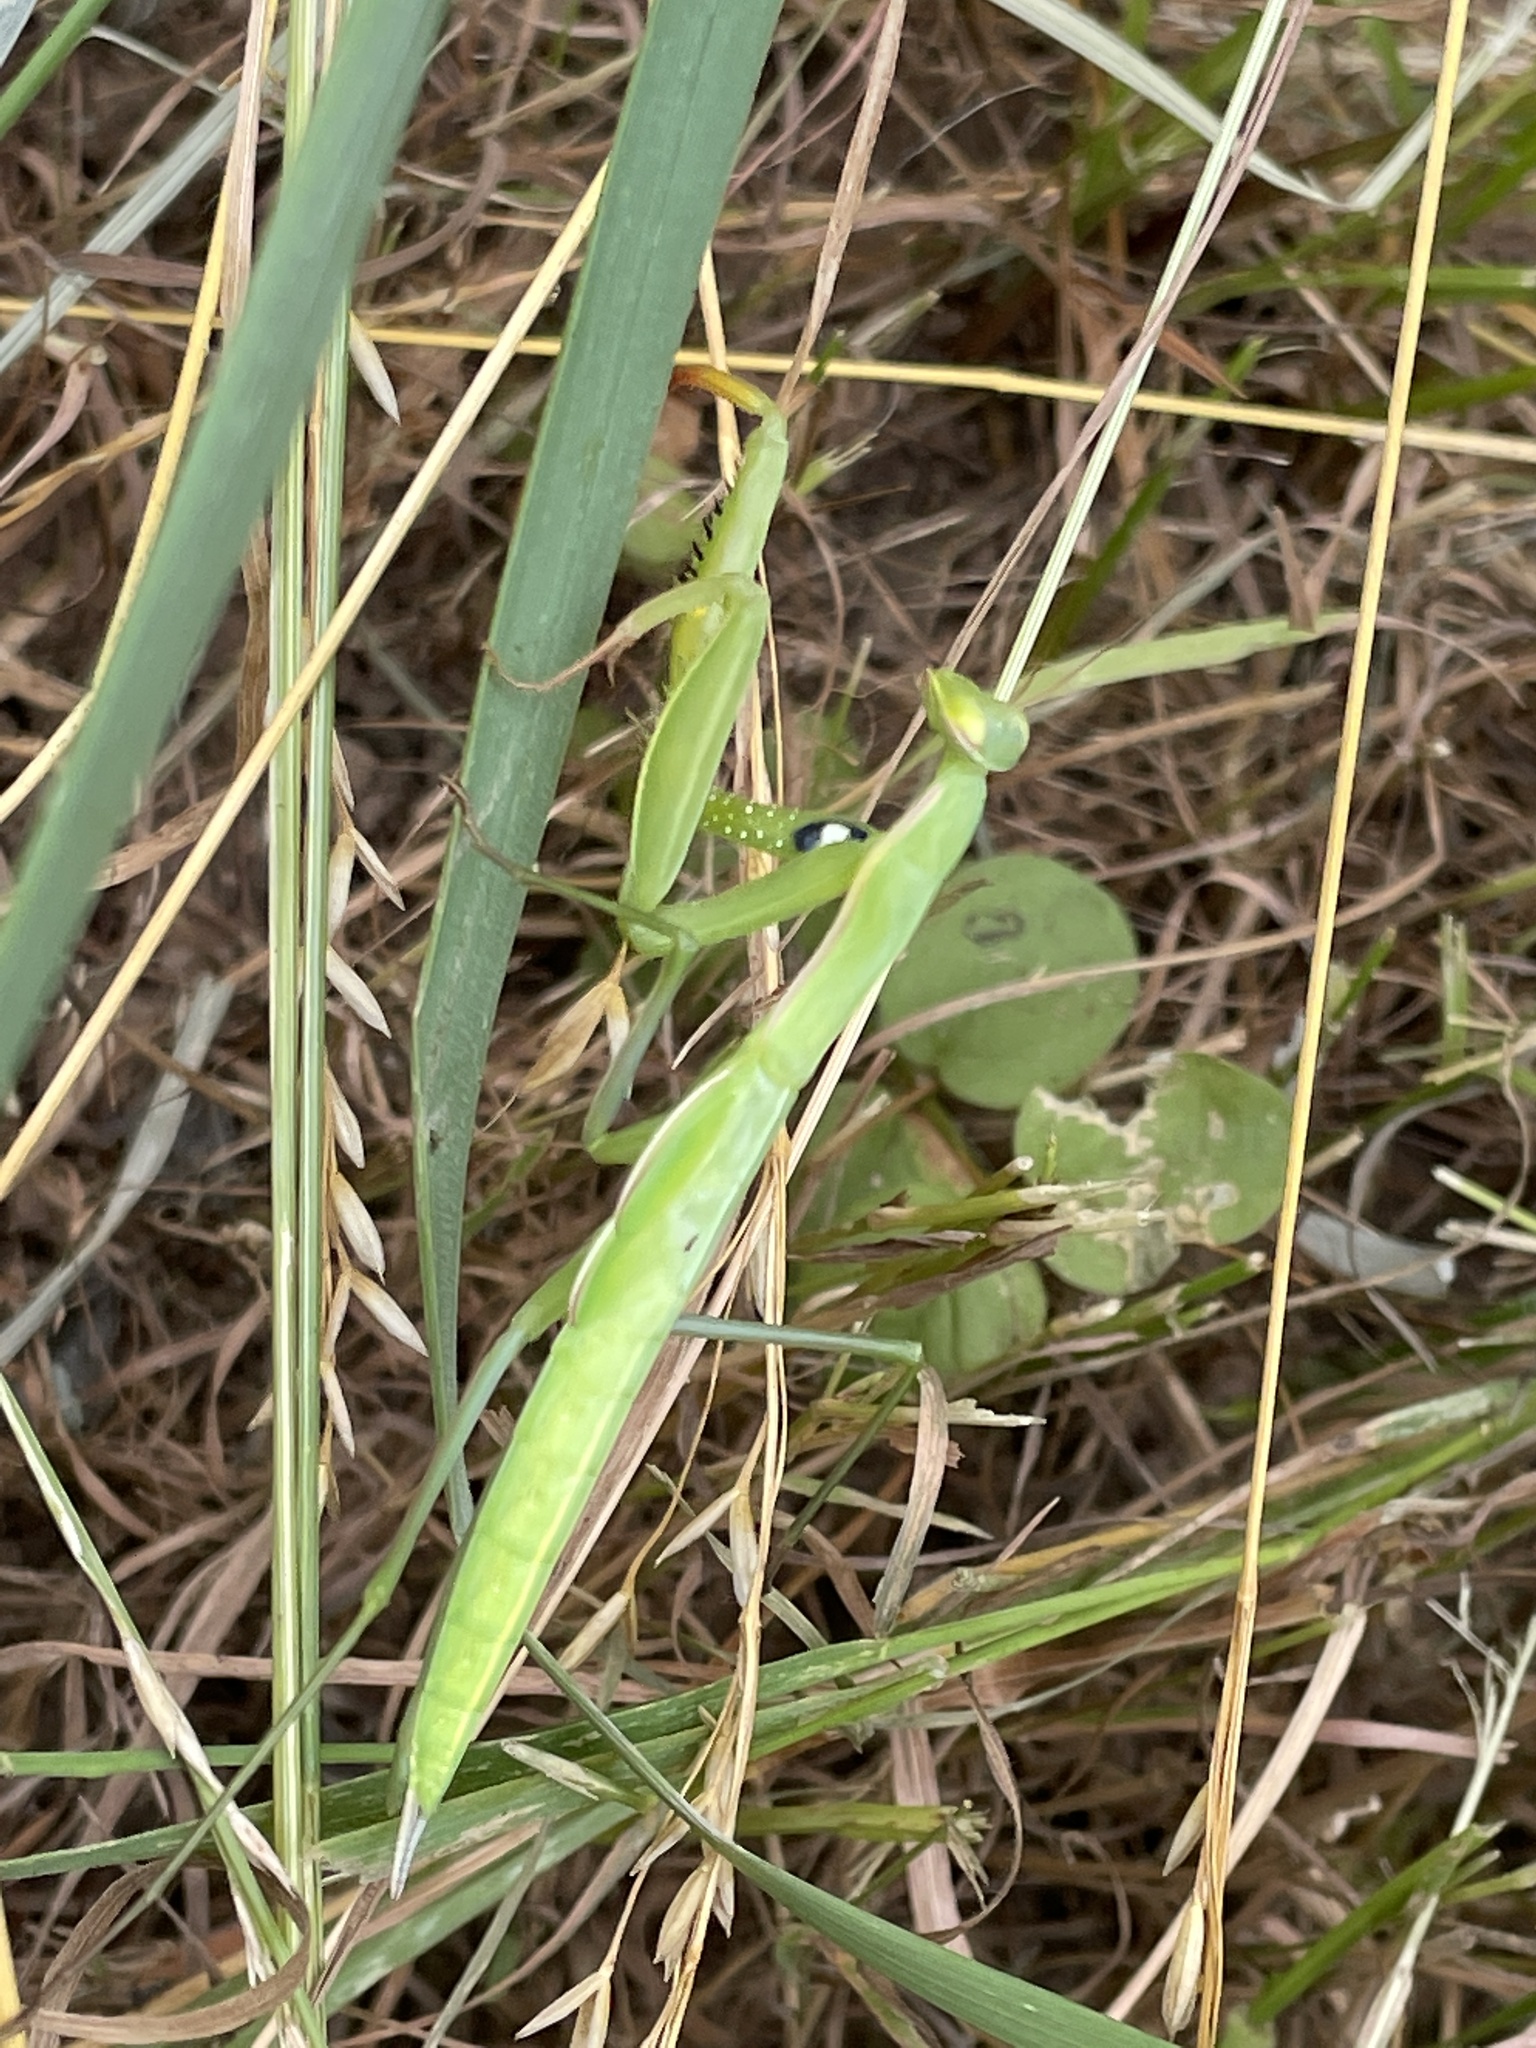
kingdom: Animalia
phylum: Arthropoda
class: Insecta
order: Mantodea
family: Mantidae
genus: Mantis
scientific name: Mantis religiosa
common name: Praying mantis
